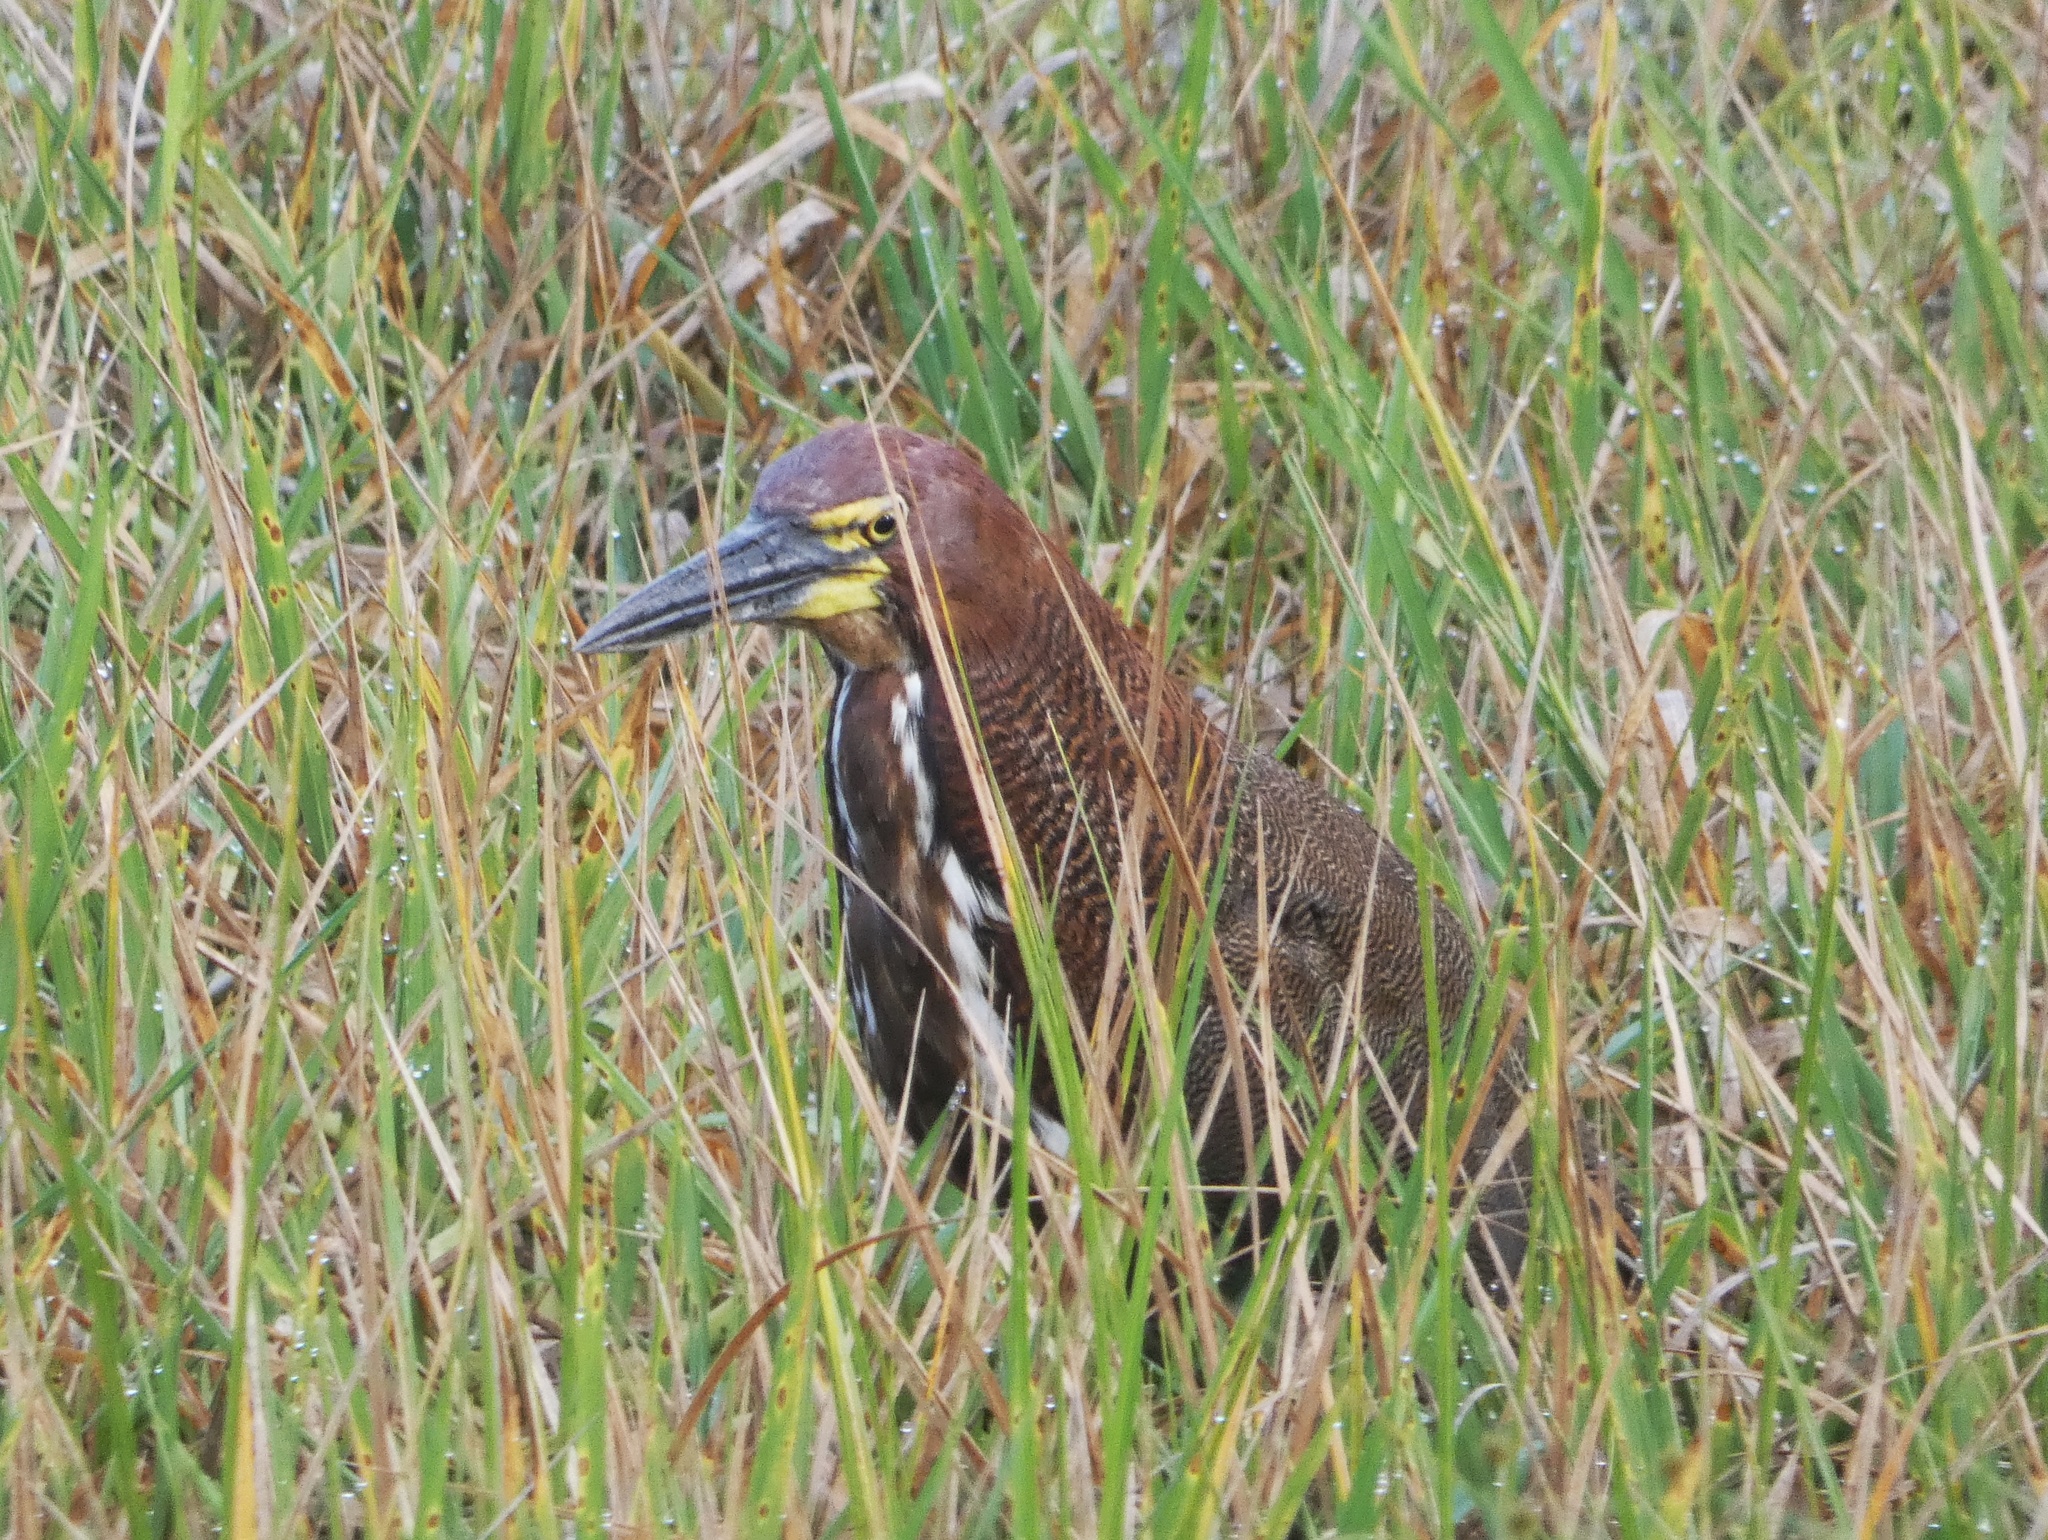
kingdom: Animalia
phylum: Chordata
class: Aves
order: Pelecaniformes
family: Ardeidae
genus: Tigrisoma
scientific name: Tigrisoma lineatum
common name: Rufescent tiger-heron
